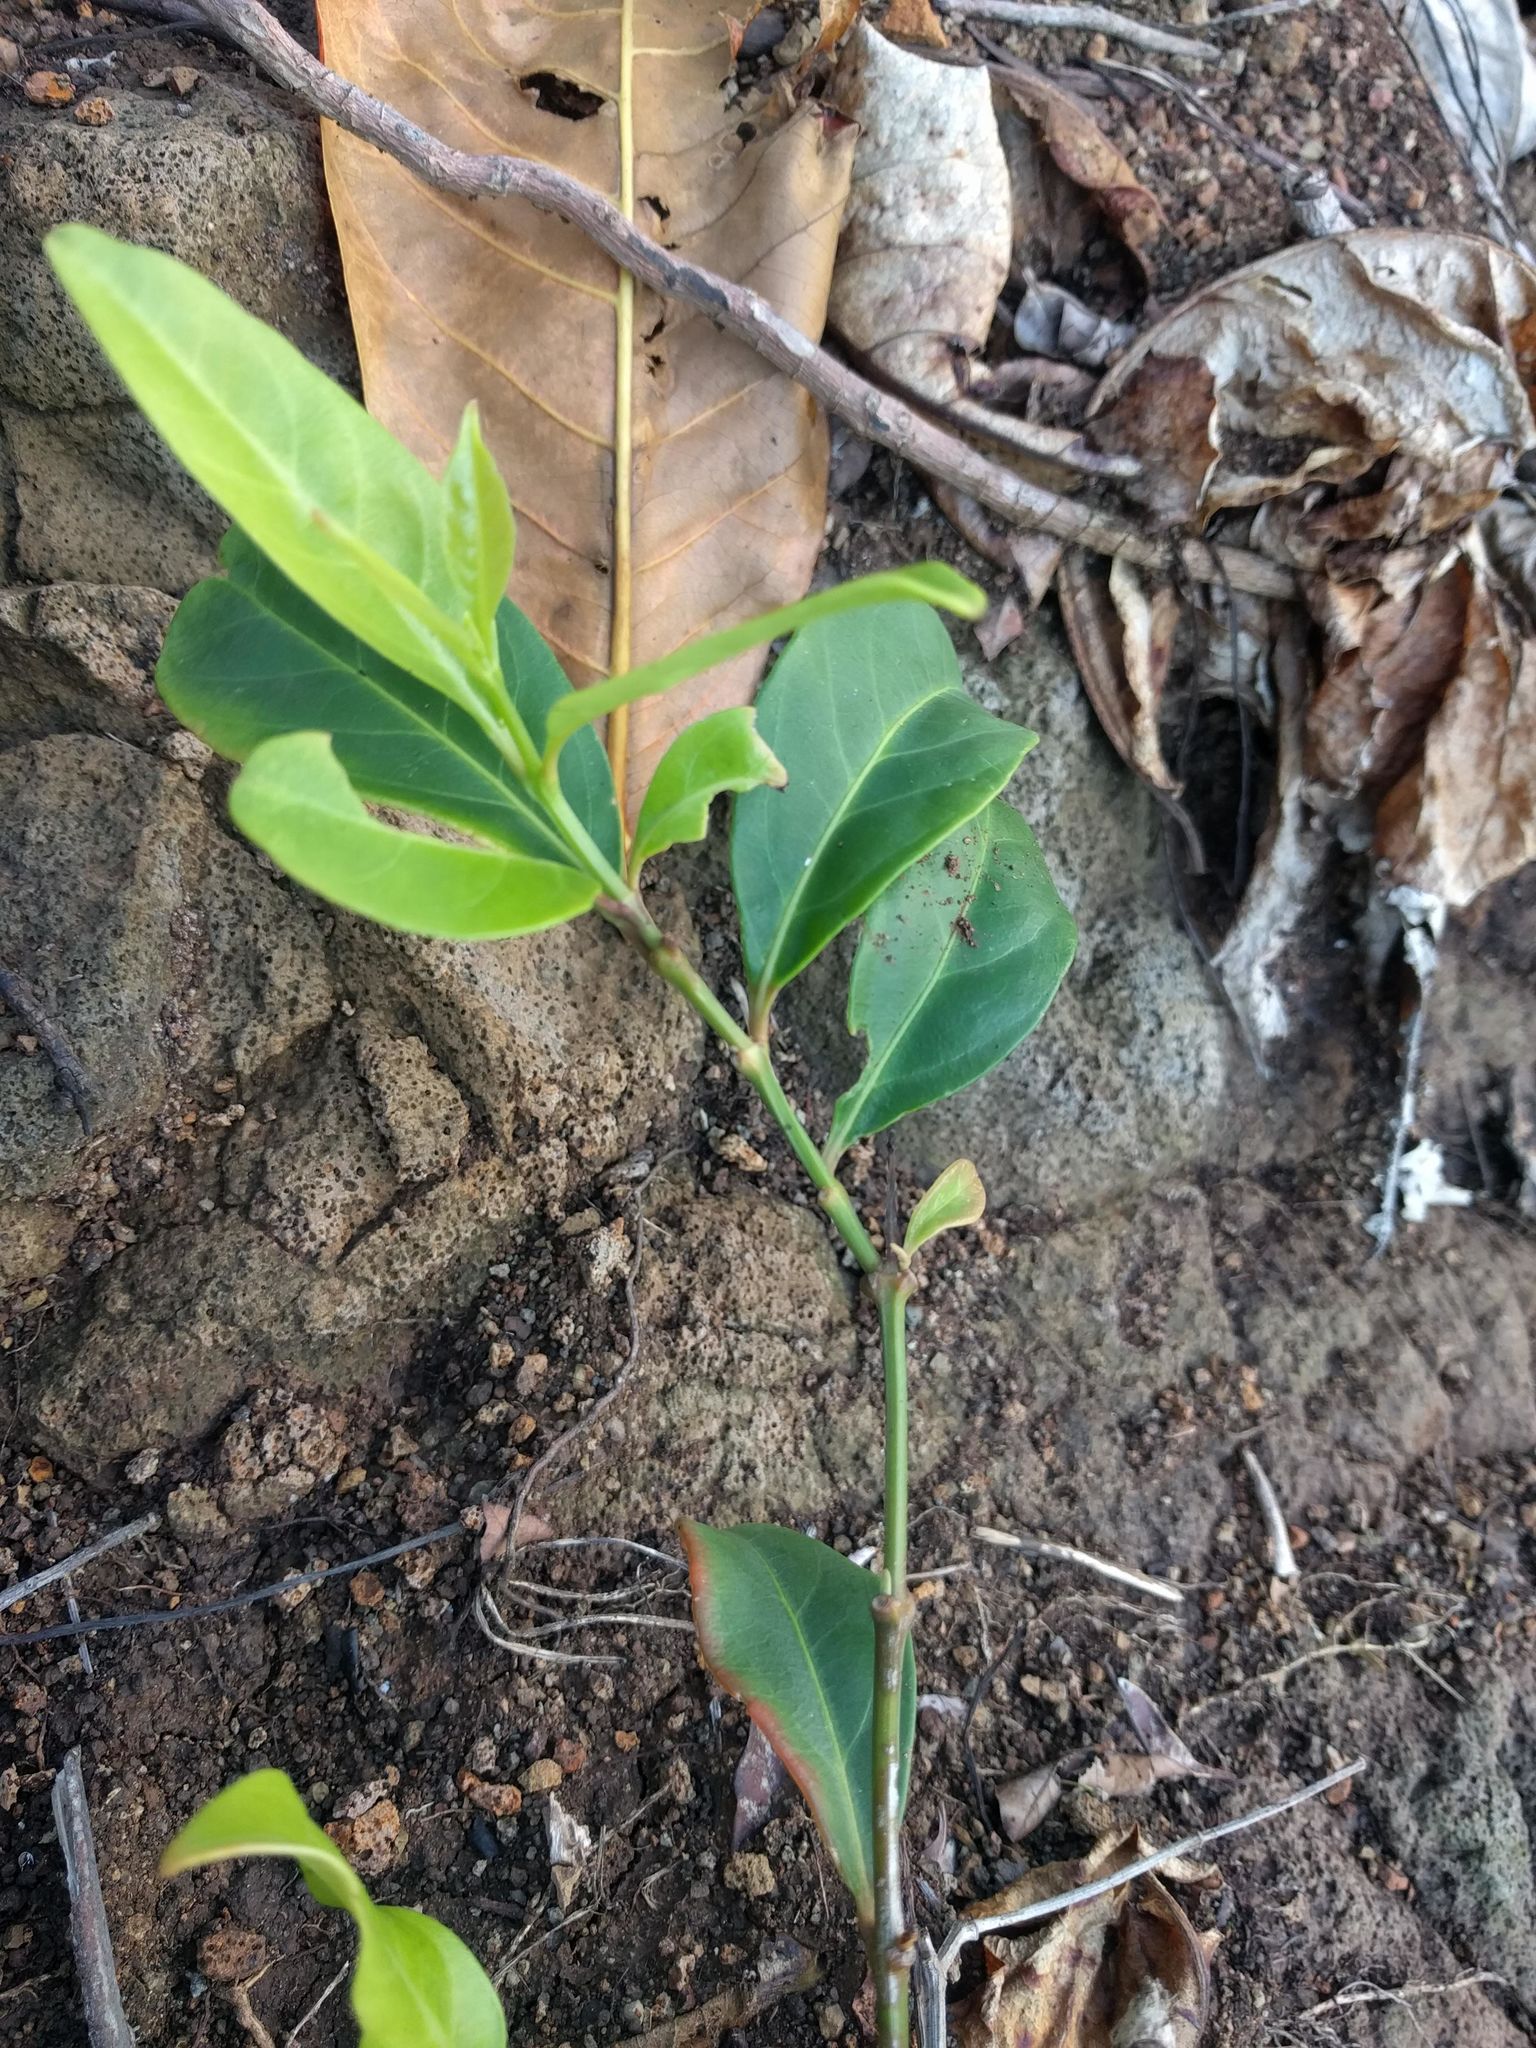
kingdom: Plantae
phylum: Tracheophyta
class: Magnoliopsida
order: Lamiales
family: Verbenaceae
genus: Citharexylum
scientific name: Citharexylum caudatum
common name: Fiddlewood
